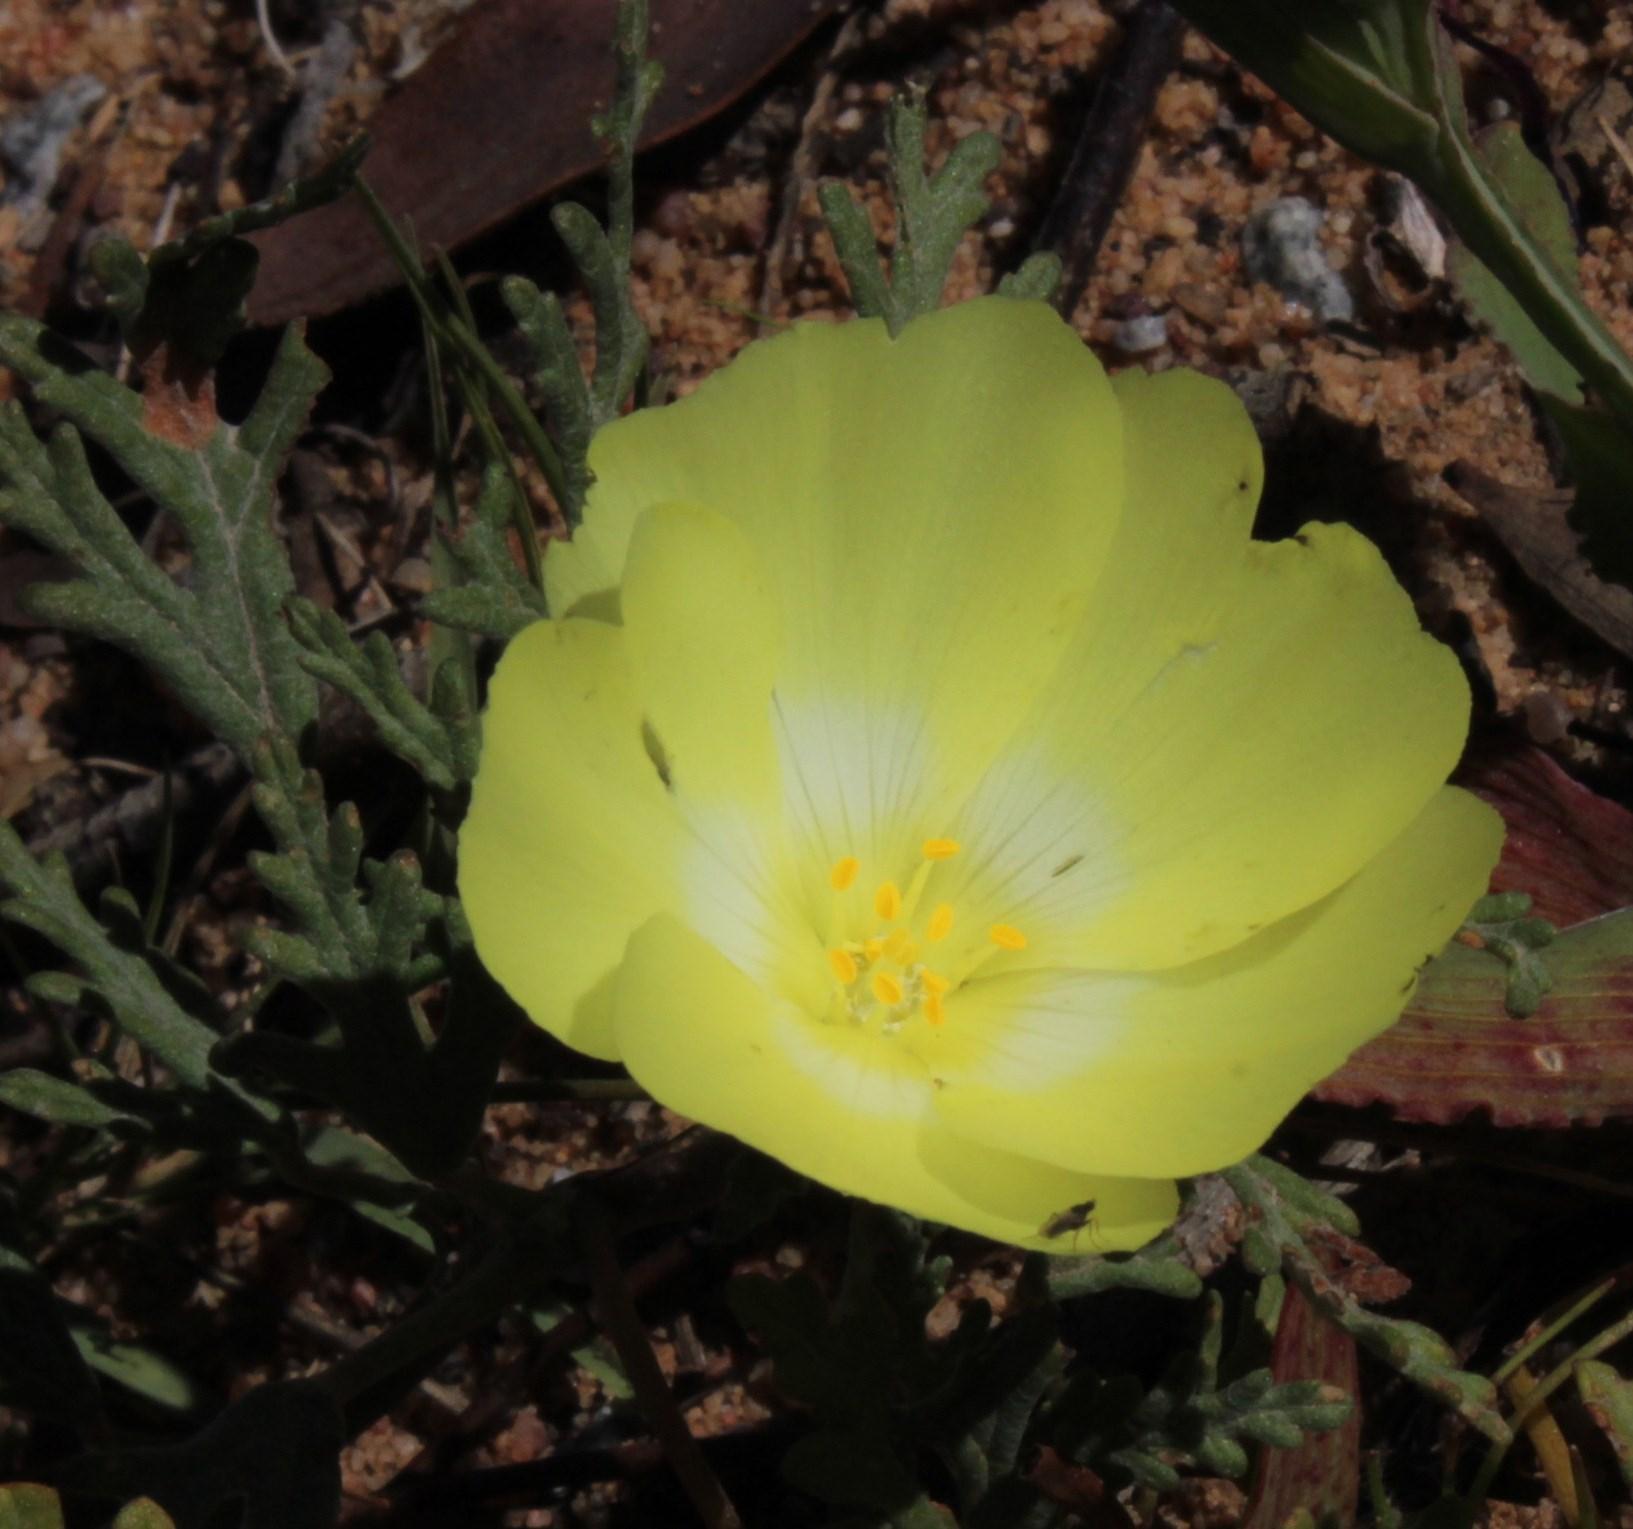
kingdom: Plantae
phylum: Tracheophyta
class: Magnoliopsida
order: Malvales
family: Neuradaceae
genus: Grielum
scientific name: Grielum humifusum
